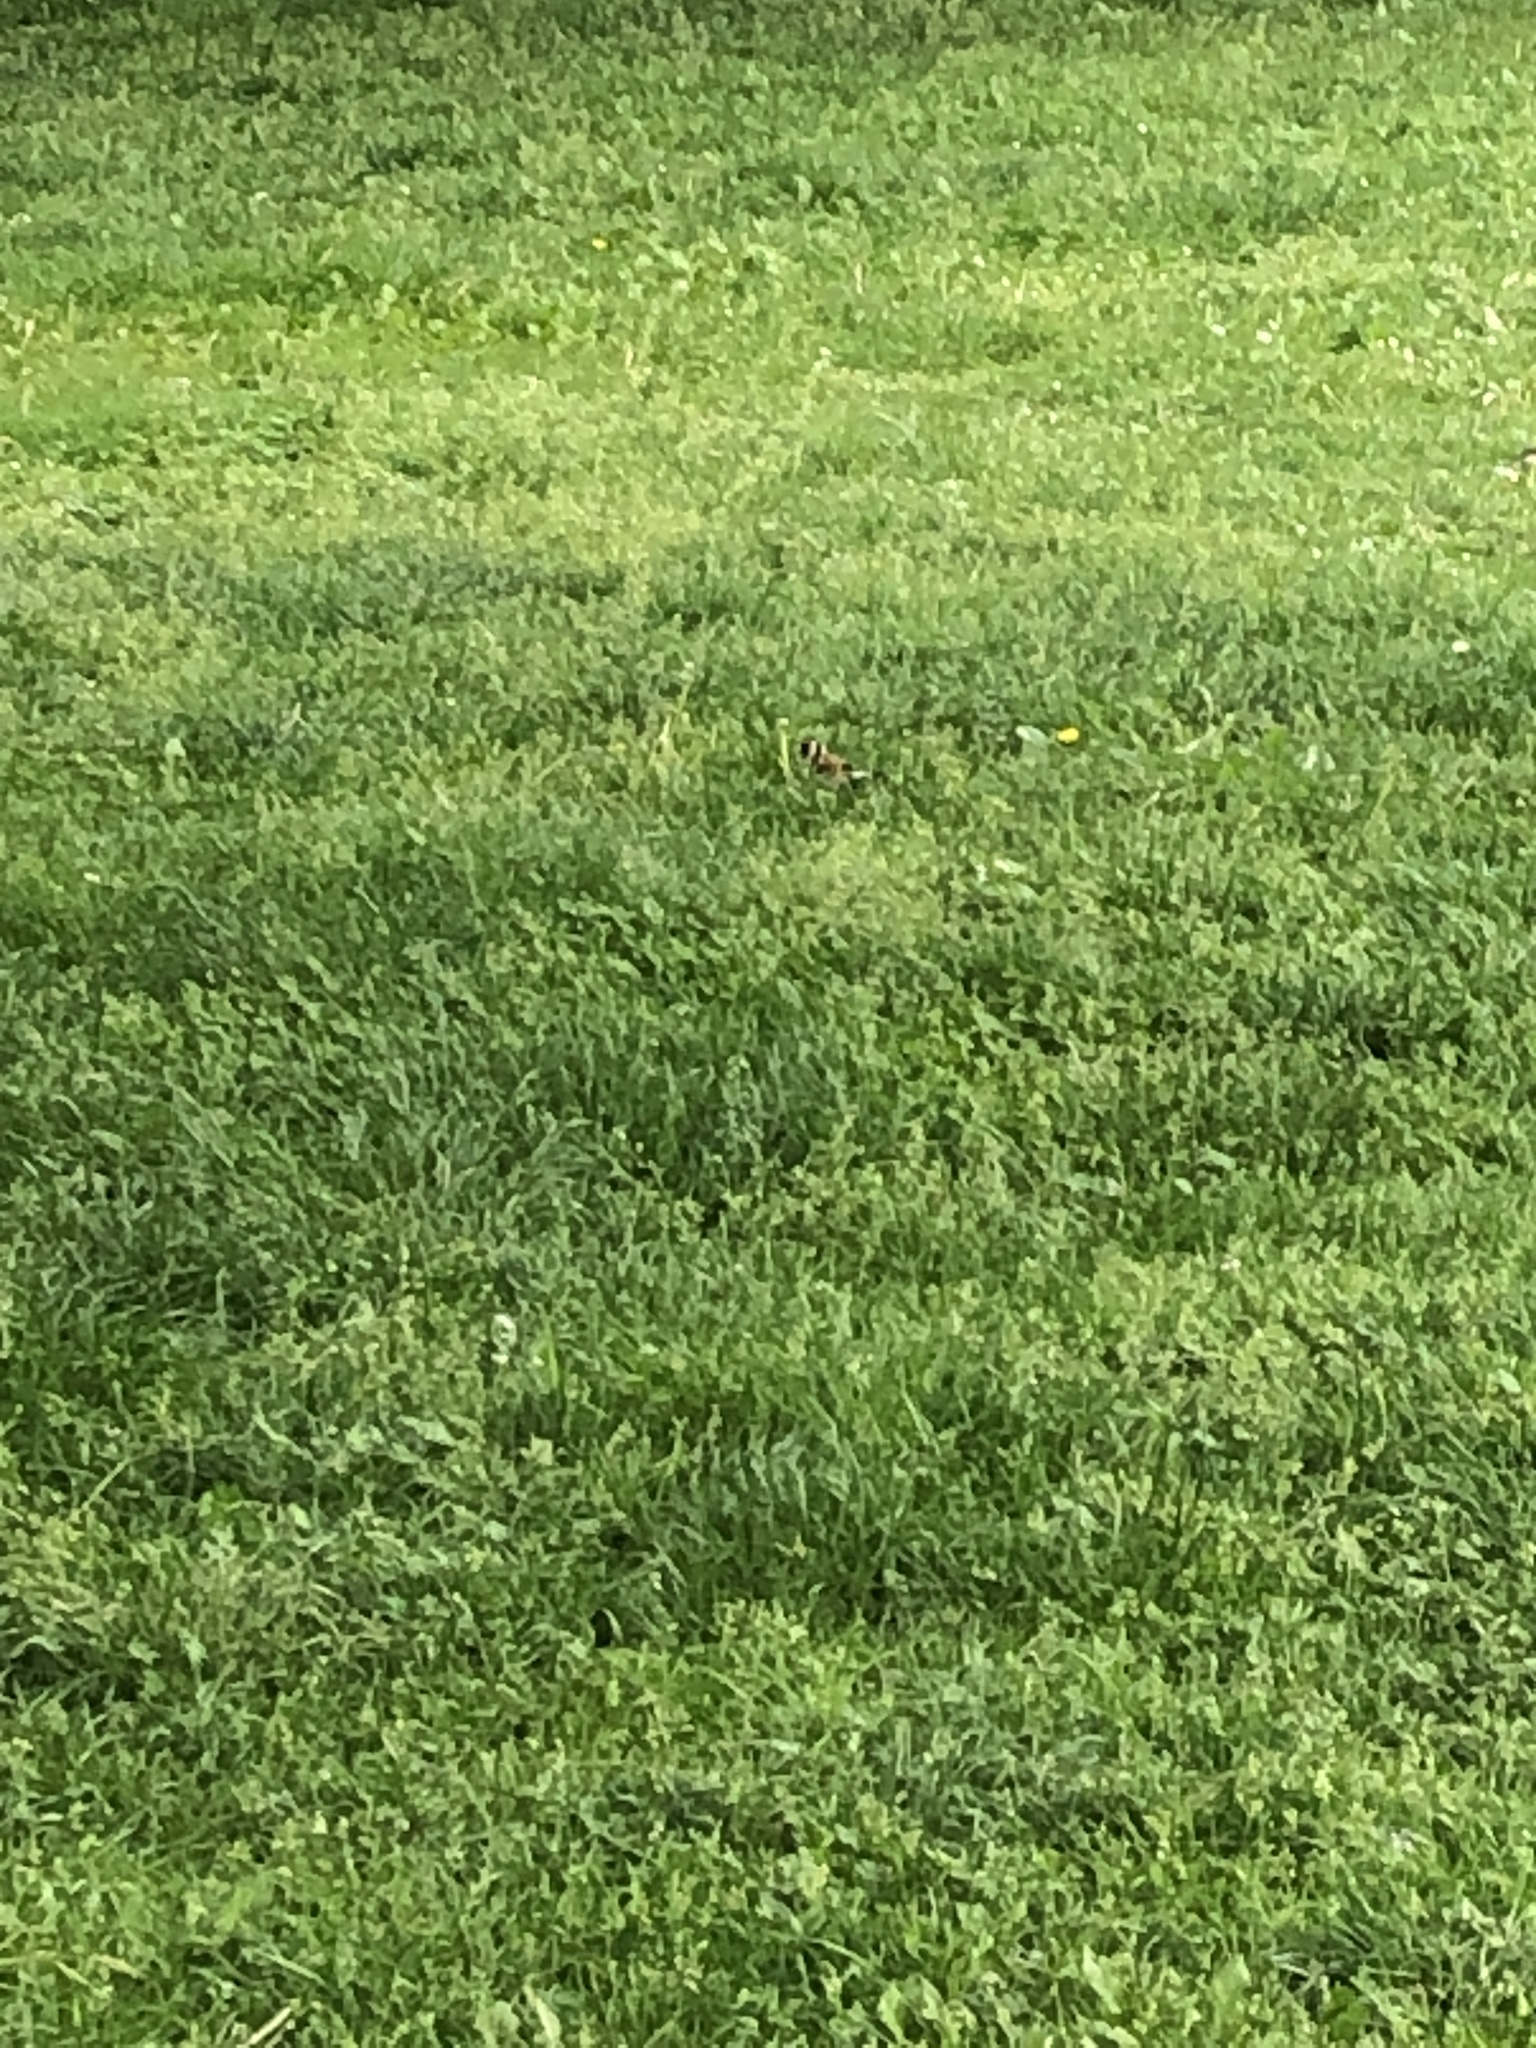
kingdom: Animalia
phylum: Chordata
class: Aves
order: Passeriformes
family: Fringillidae
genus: Carduelis
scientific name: Carduelis carduelis
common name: European goldfinch
